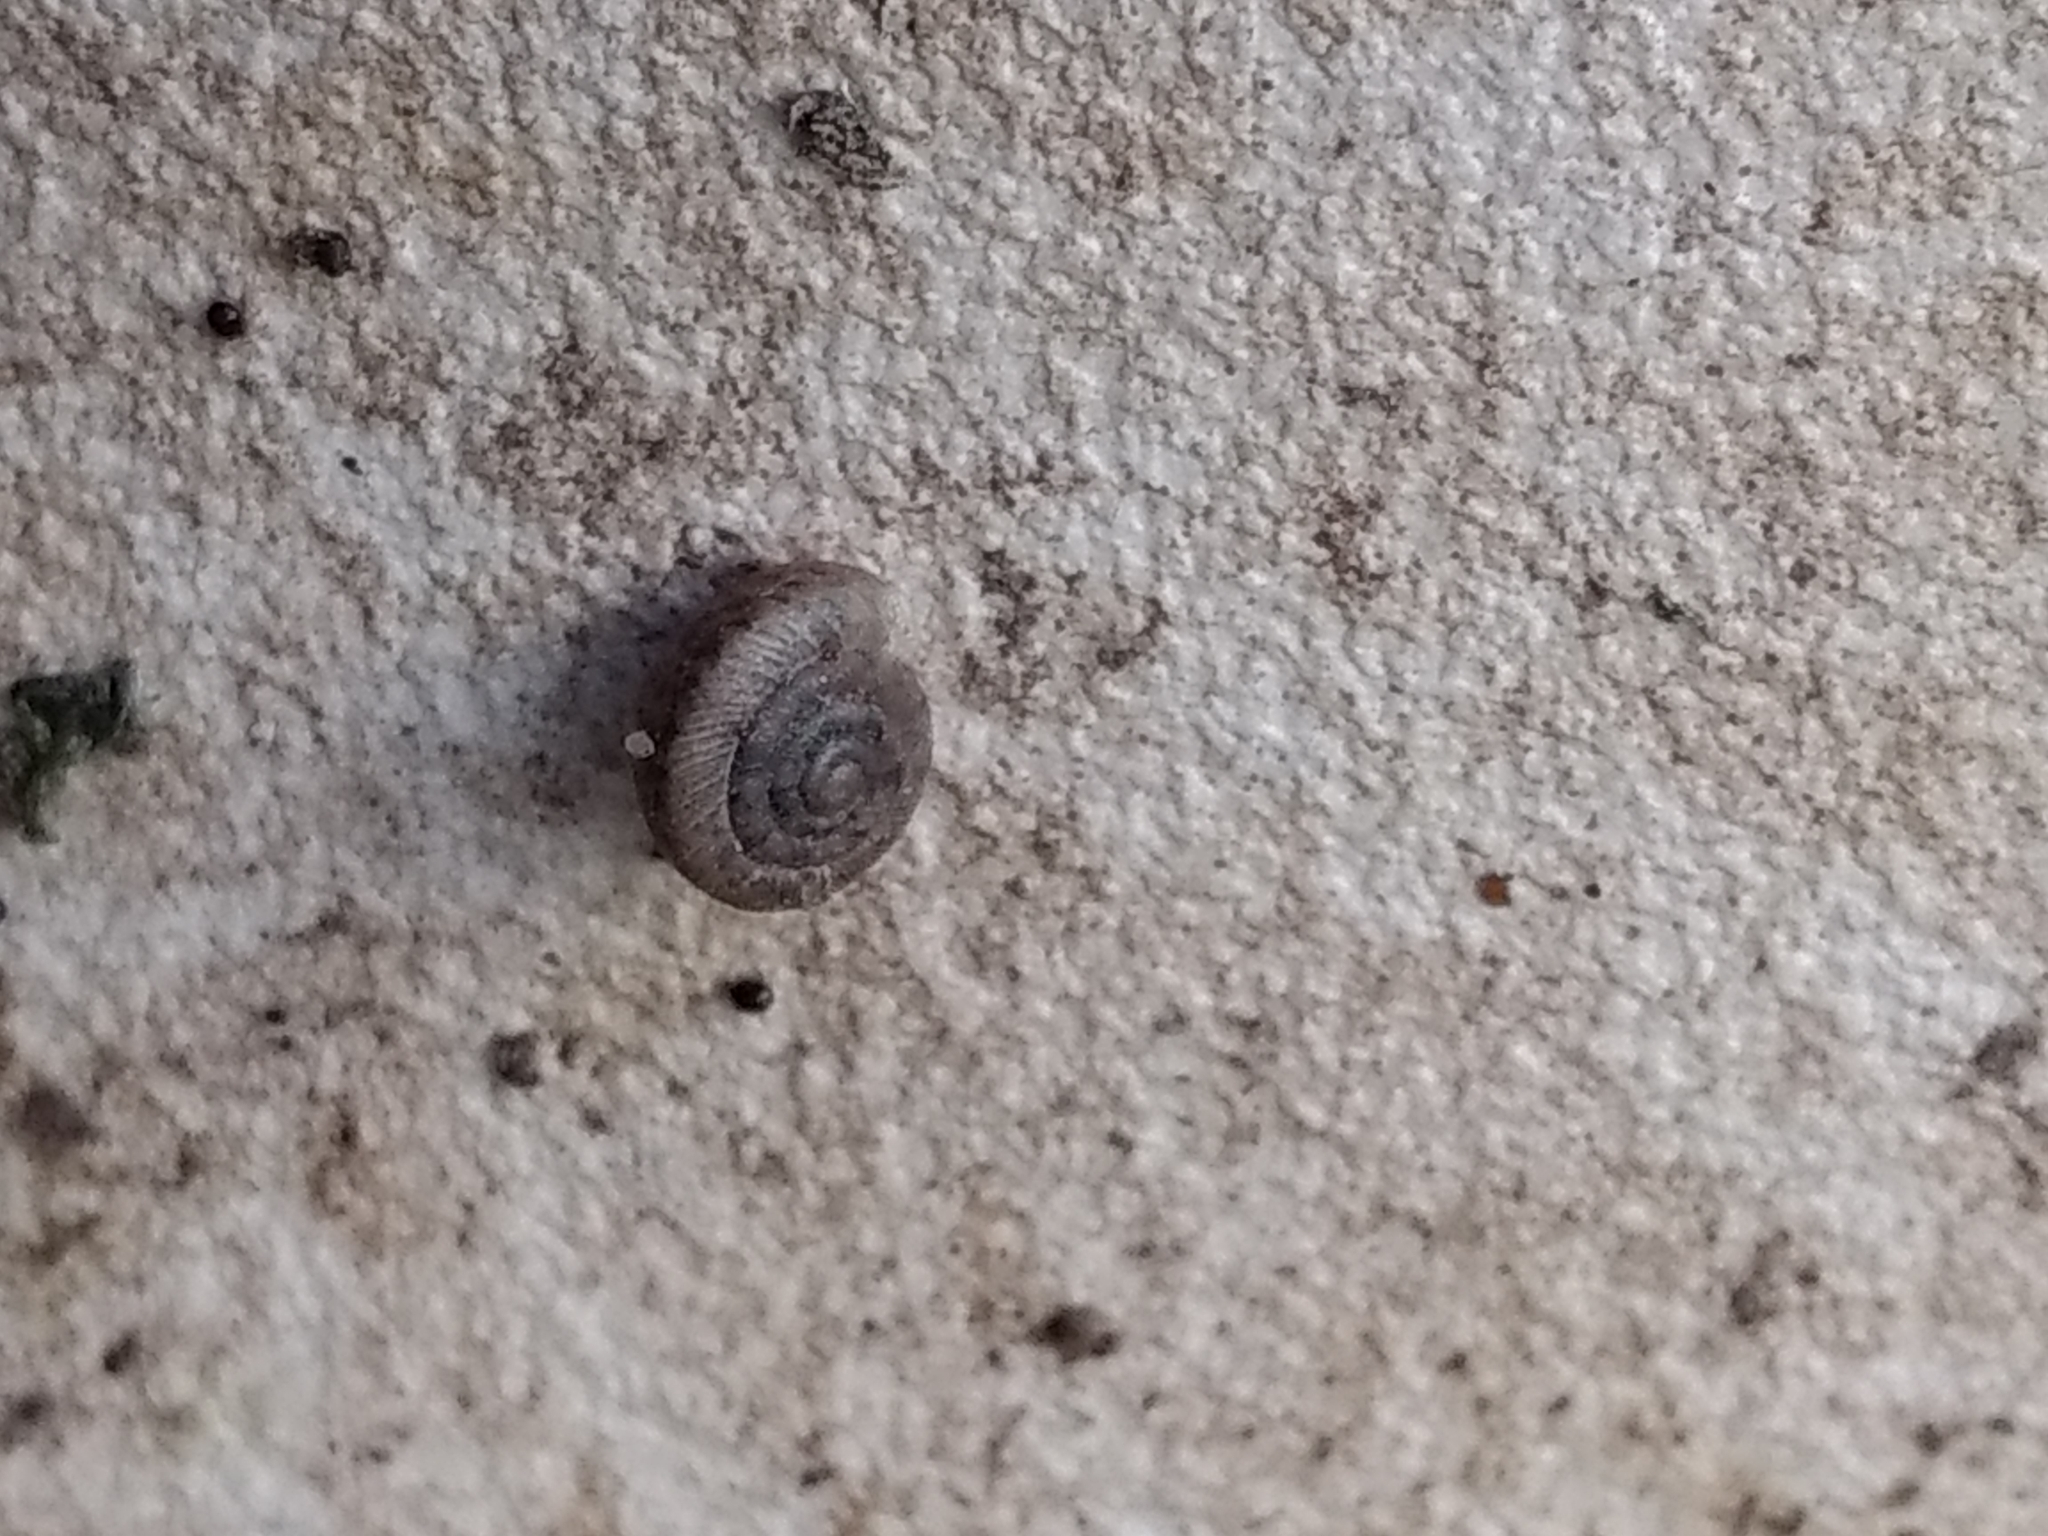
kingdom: Animalia
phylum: Mollusca
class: Gastropoda
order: Stylommatophora
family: Polygyridae
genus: Polygyra
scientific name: Polygyra cereolus
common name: Southern flatcone snail
